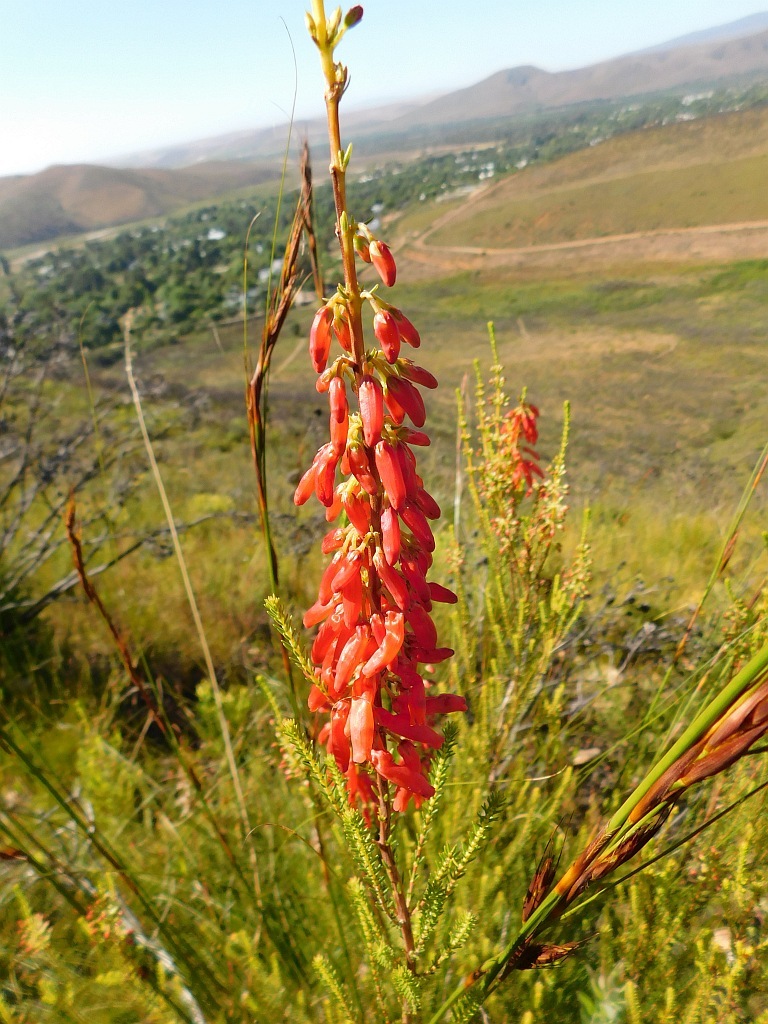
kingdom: Plantae
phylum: Tracheophyta
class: Magnoliopsida
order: Ericales
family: Ericaceae
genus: Erica
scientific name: Erica mammosa
